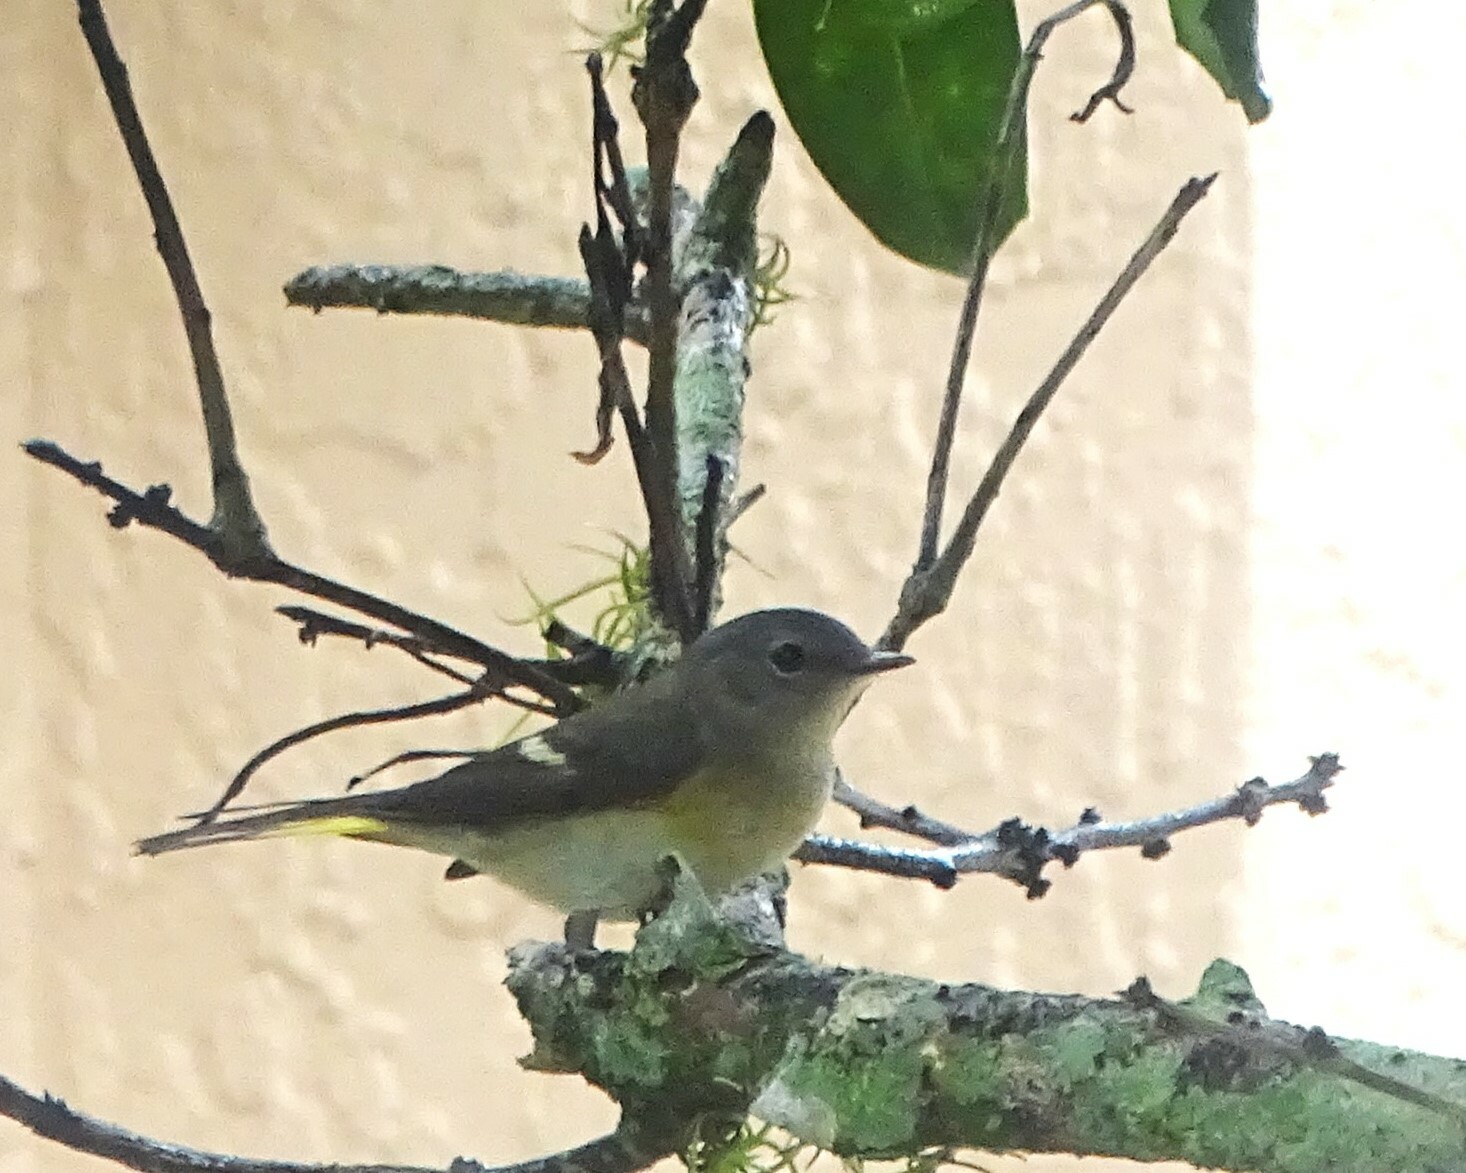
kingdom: Animalia
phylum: Chordata
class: Aves
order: Passeriformes
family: Parulidae
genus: Setophaga
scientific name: Setophaga ruticilla
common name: American redstart
